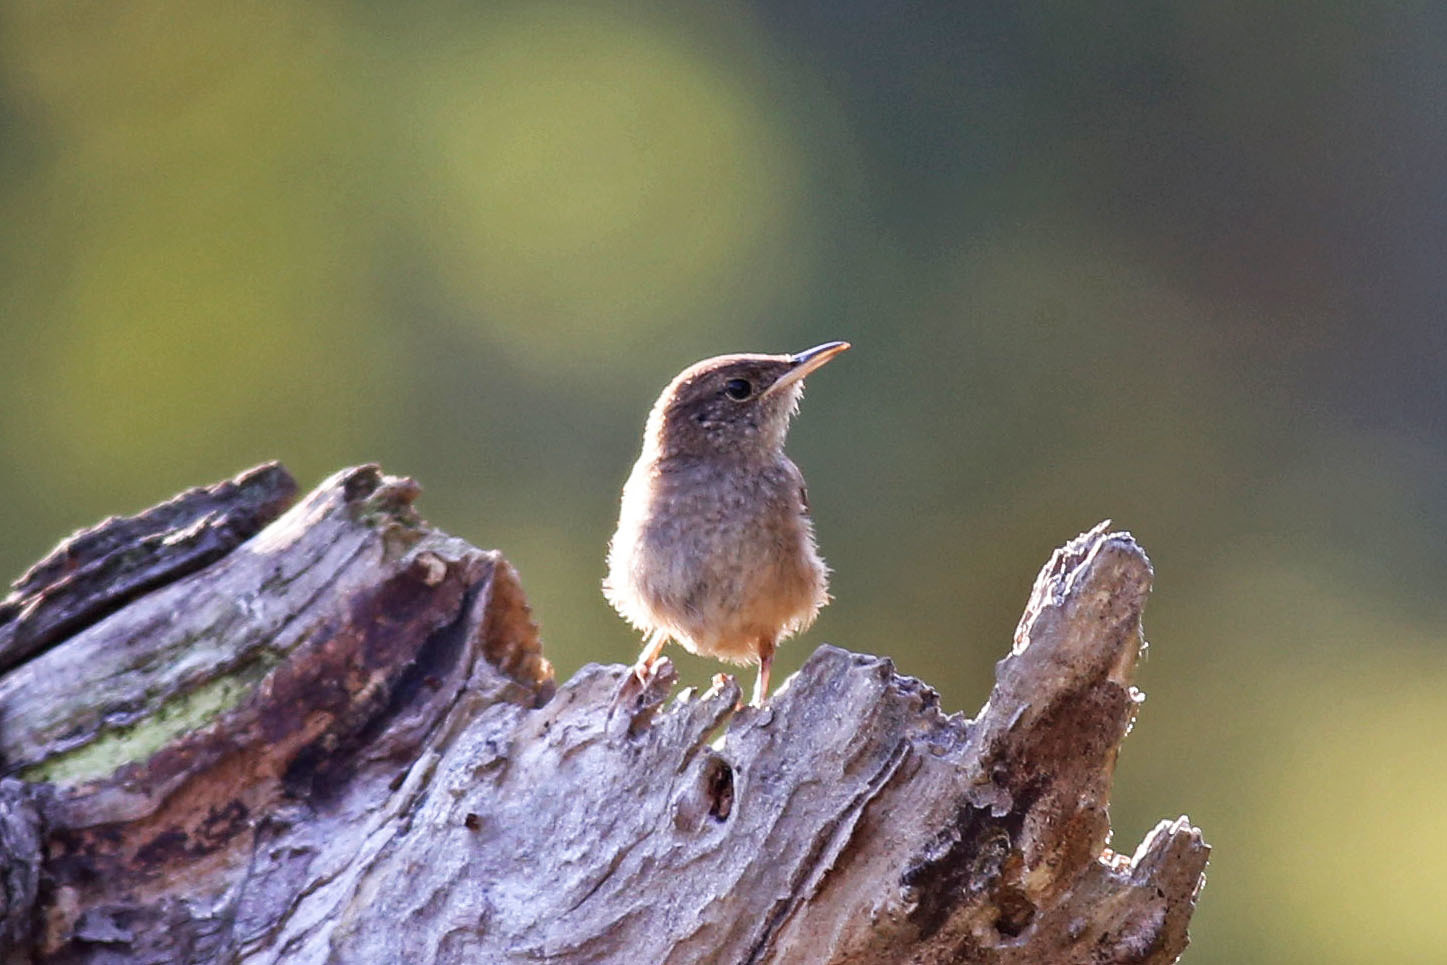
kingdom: Animalia
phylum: Chordata
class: Aves
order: Passeriformes
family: Troglodytidae
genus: Troglodytes
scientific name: Troglodytes aedon
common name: House wren
